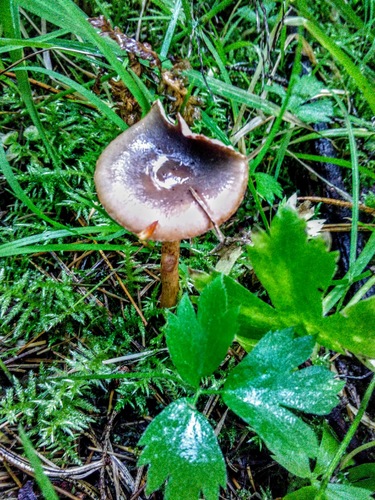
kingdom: Fungi
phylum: Basidiomycota
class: Agaricomycetes
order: Boletales
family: Gomphidiaceae
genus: Chroogomphus
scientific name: Chroogomphus rutilus
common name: Copper spike
